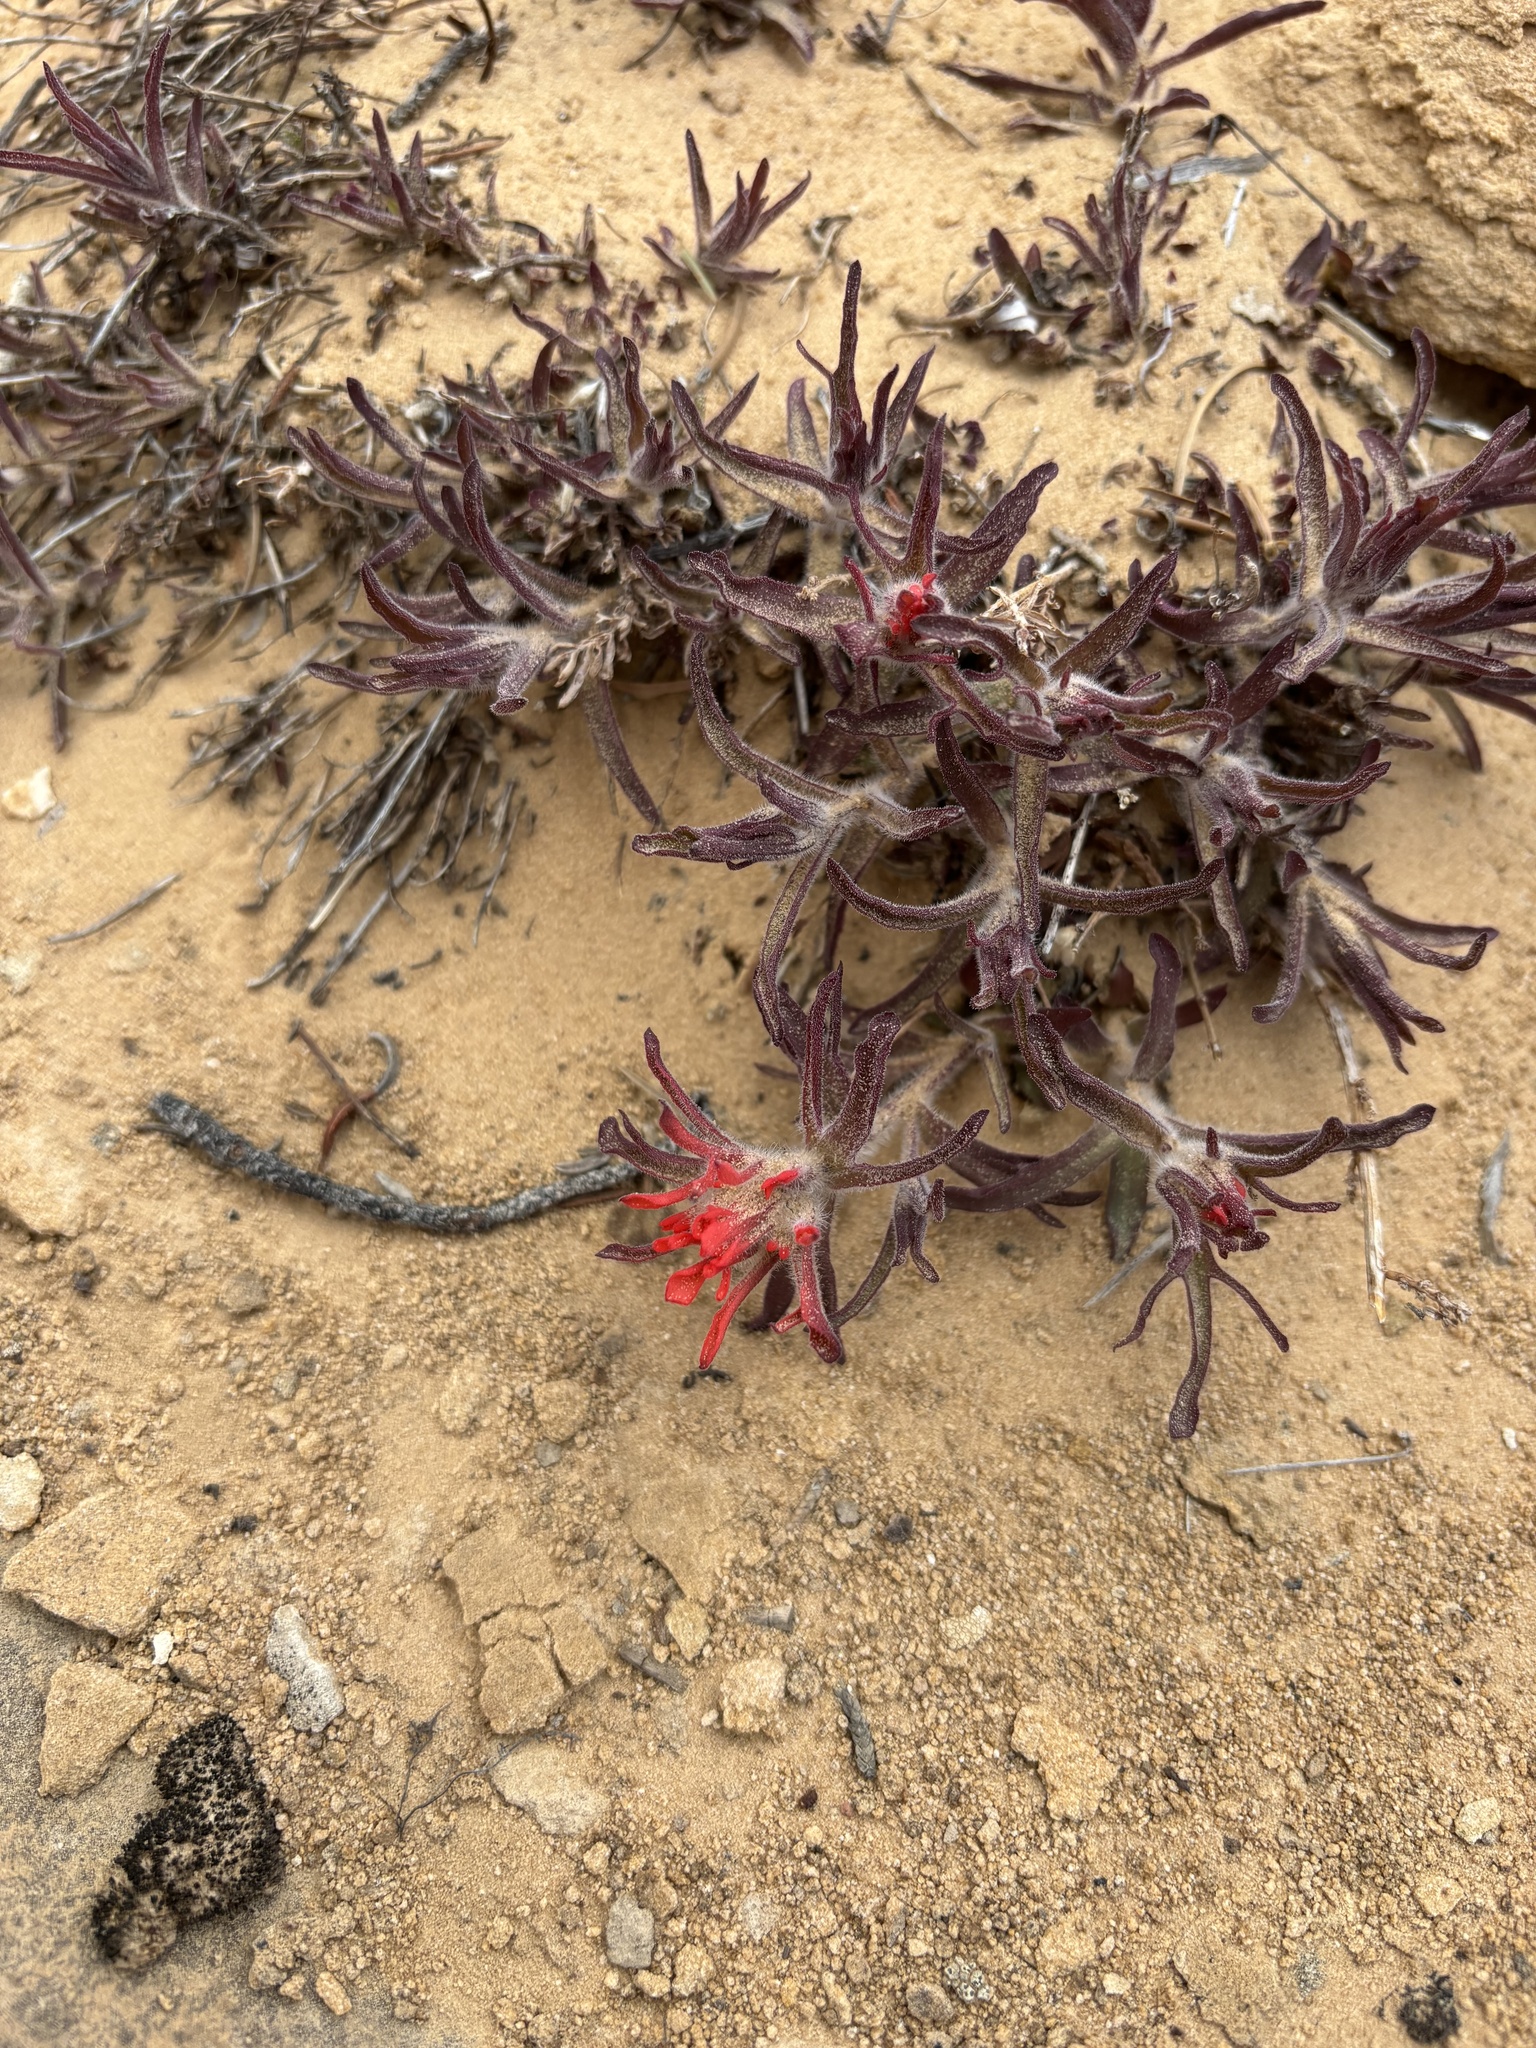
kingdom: Plantae
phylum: Tracheophyta
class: Magnoliopsida
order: Lamiales
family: Orobanchaceae
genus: Castilleja
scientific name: Castilleja scabrida
